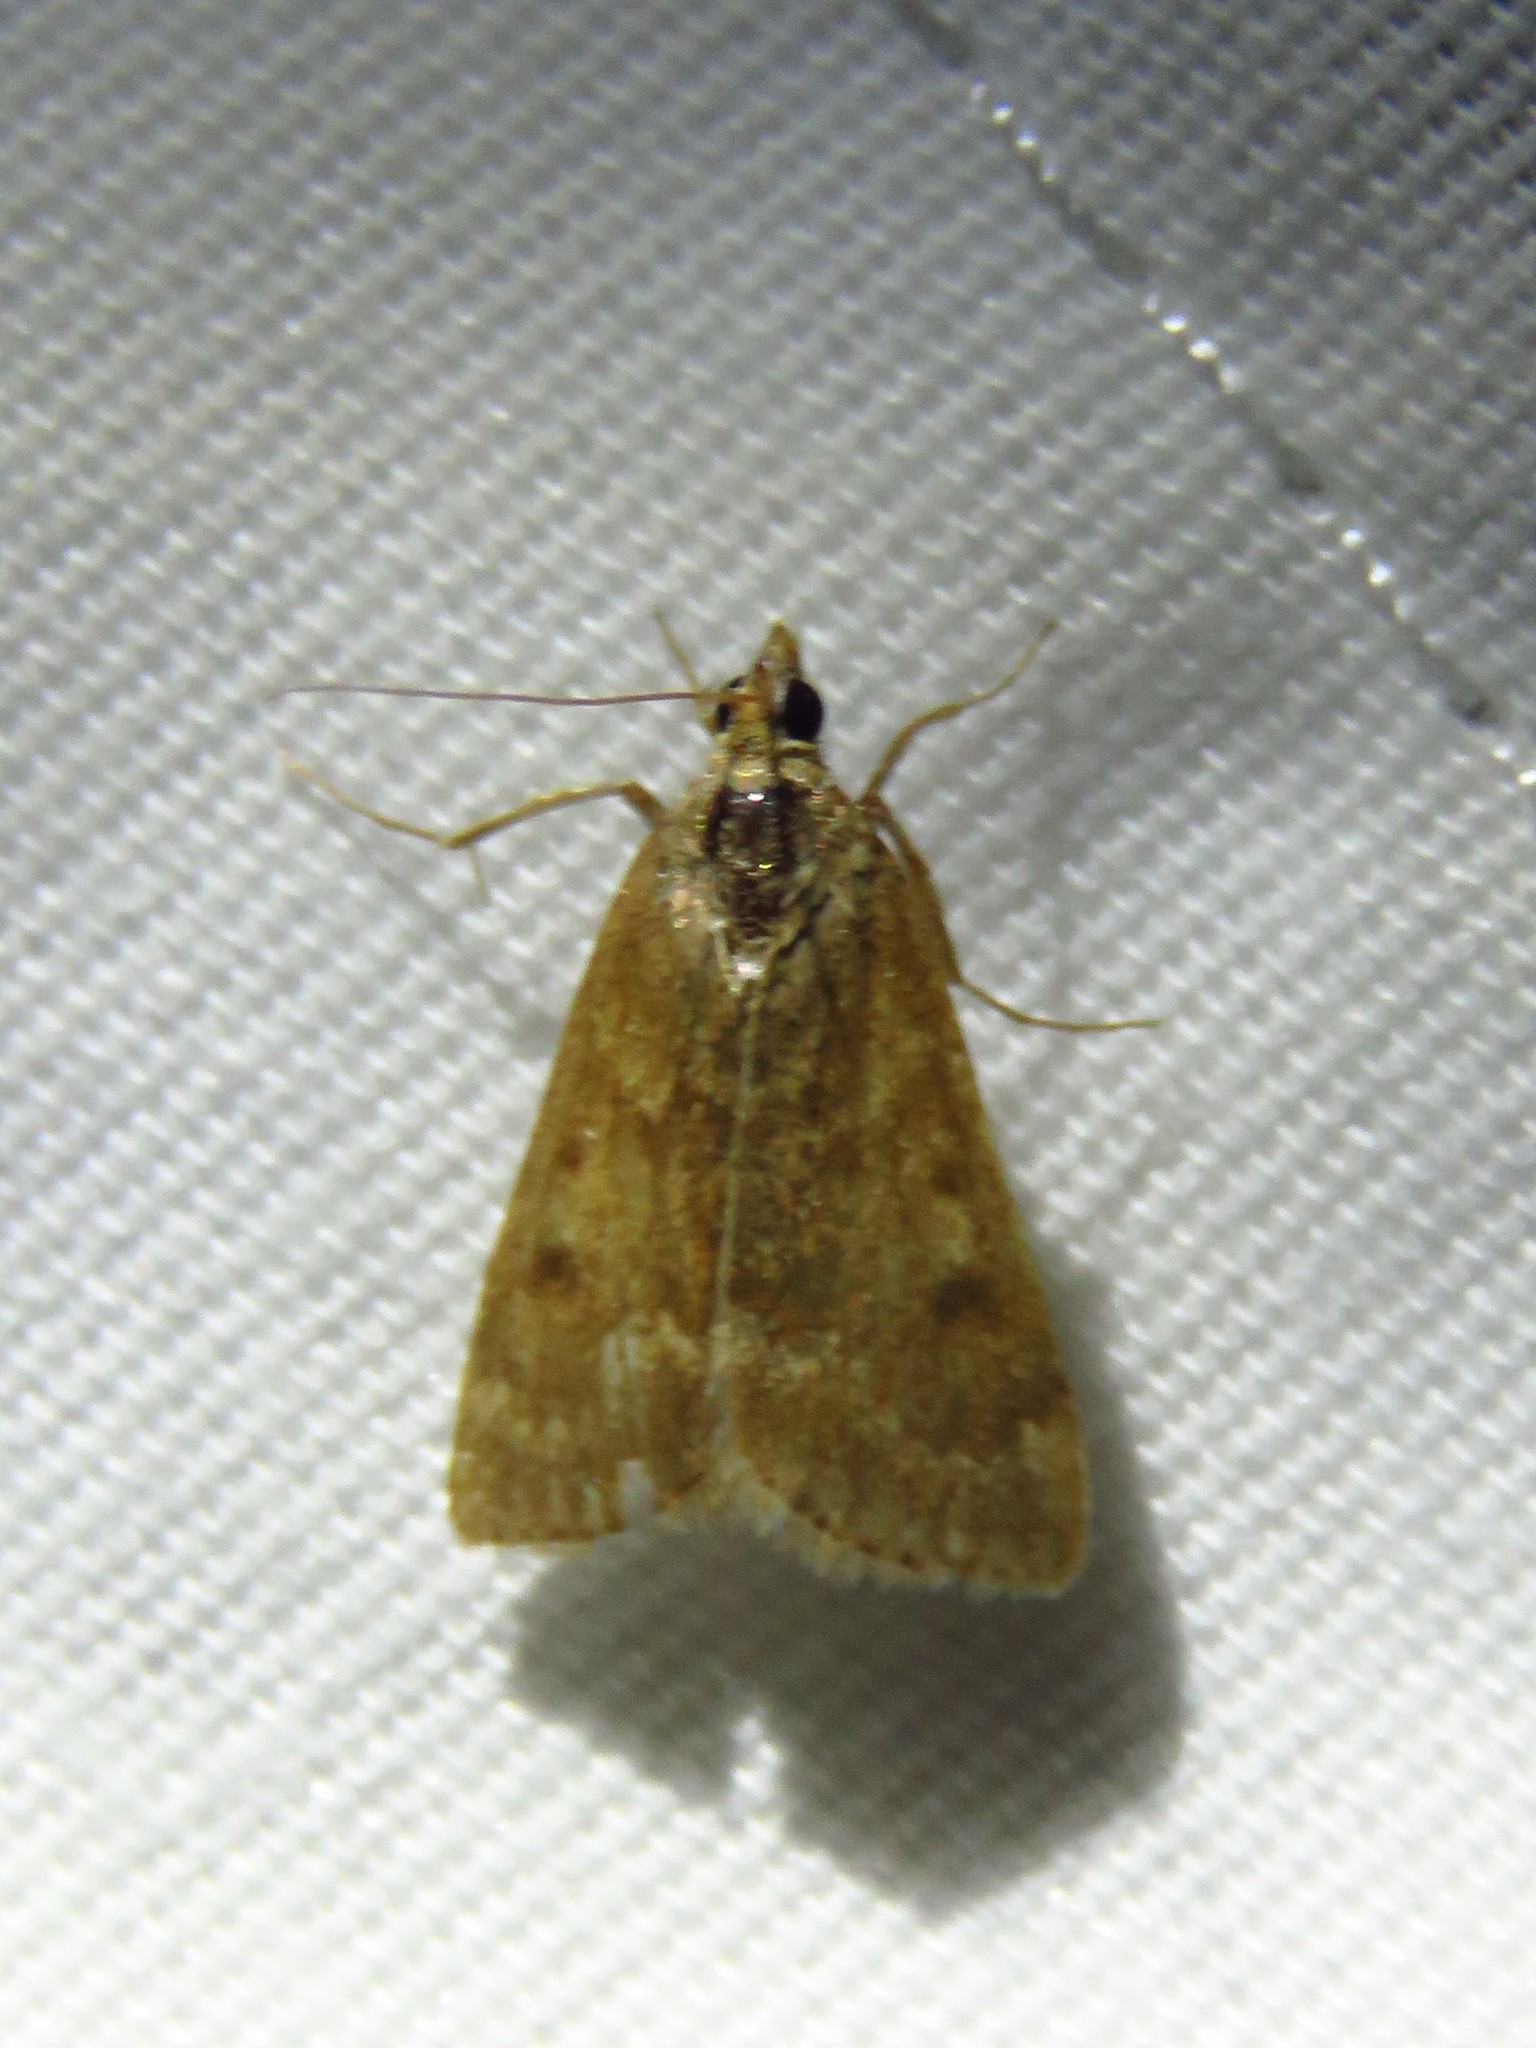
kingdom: Animalia
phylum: Arthropoda
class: Insecta
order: Lepidoptera
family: Crambidae
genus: Achyra
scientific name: Achyra rantalis
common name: Garden webworm
